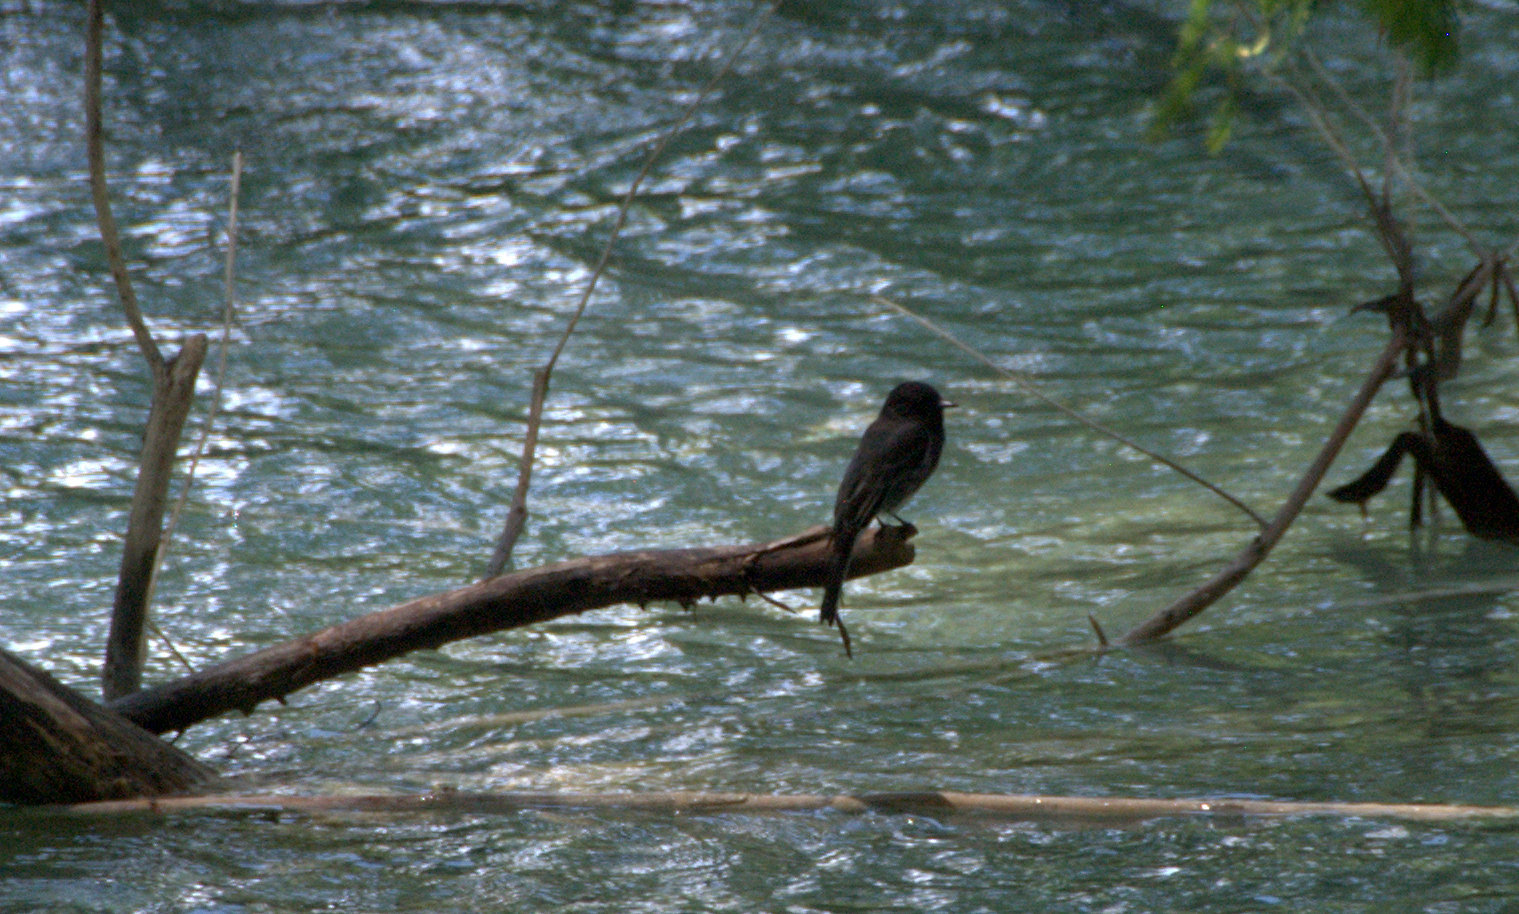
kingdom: Animalia
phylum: Chordata
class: Aves
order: Passeriformes
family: Tyrannidae
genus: Sayornis
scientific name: Sayornis nigricans
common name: Black phoebe
